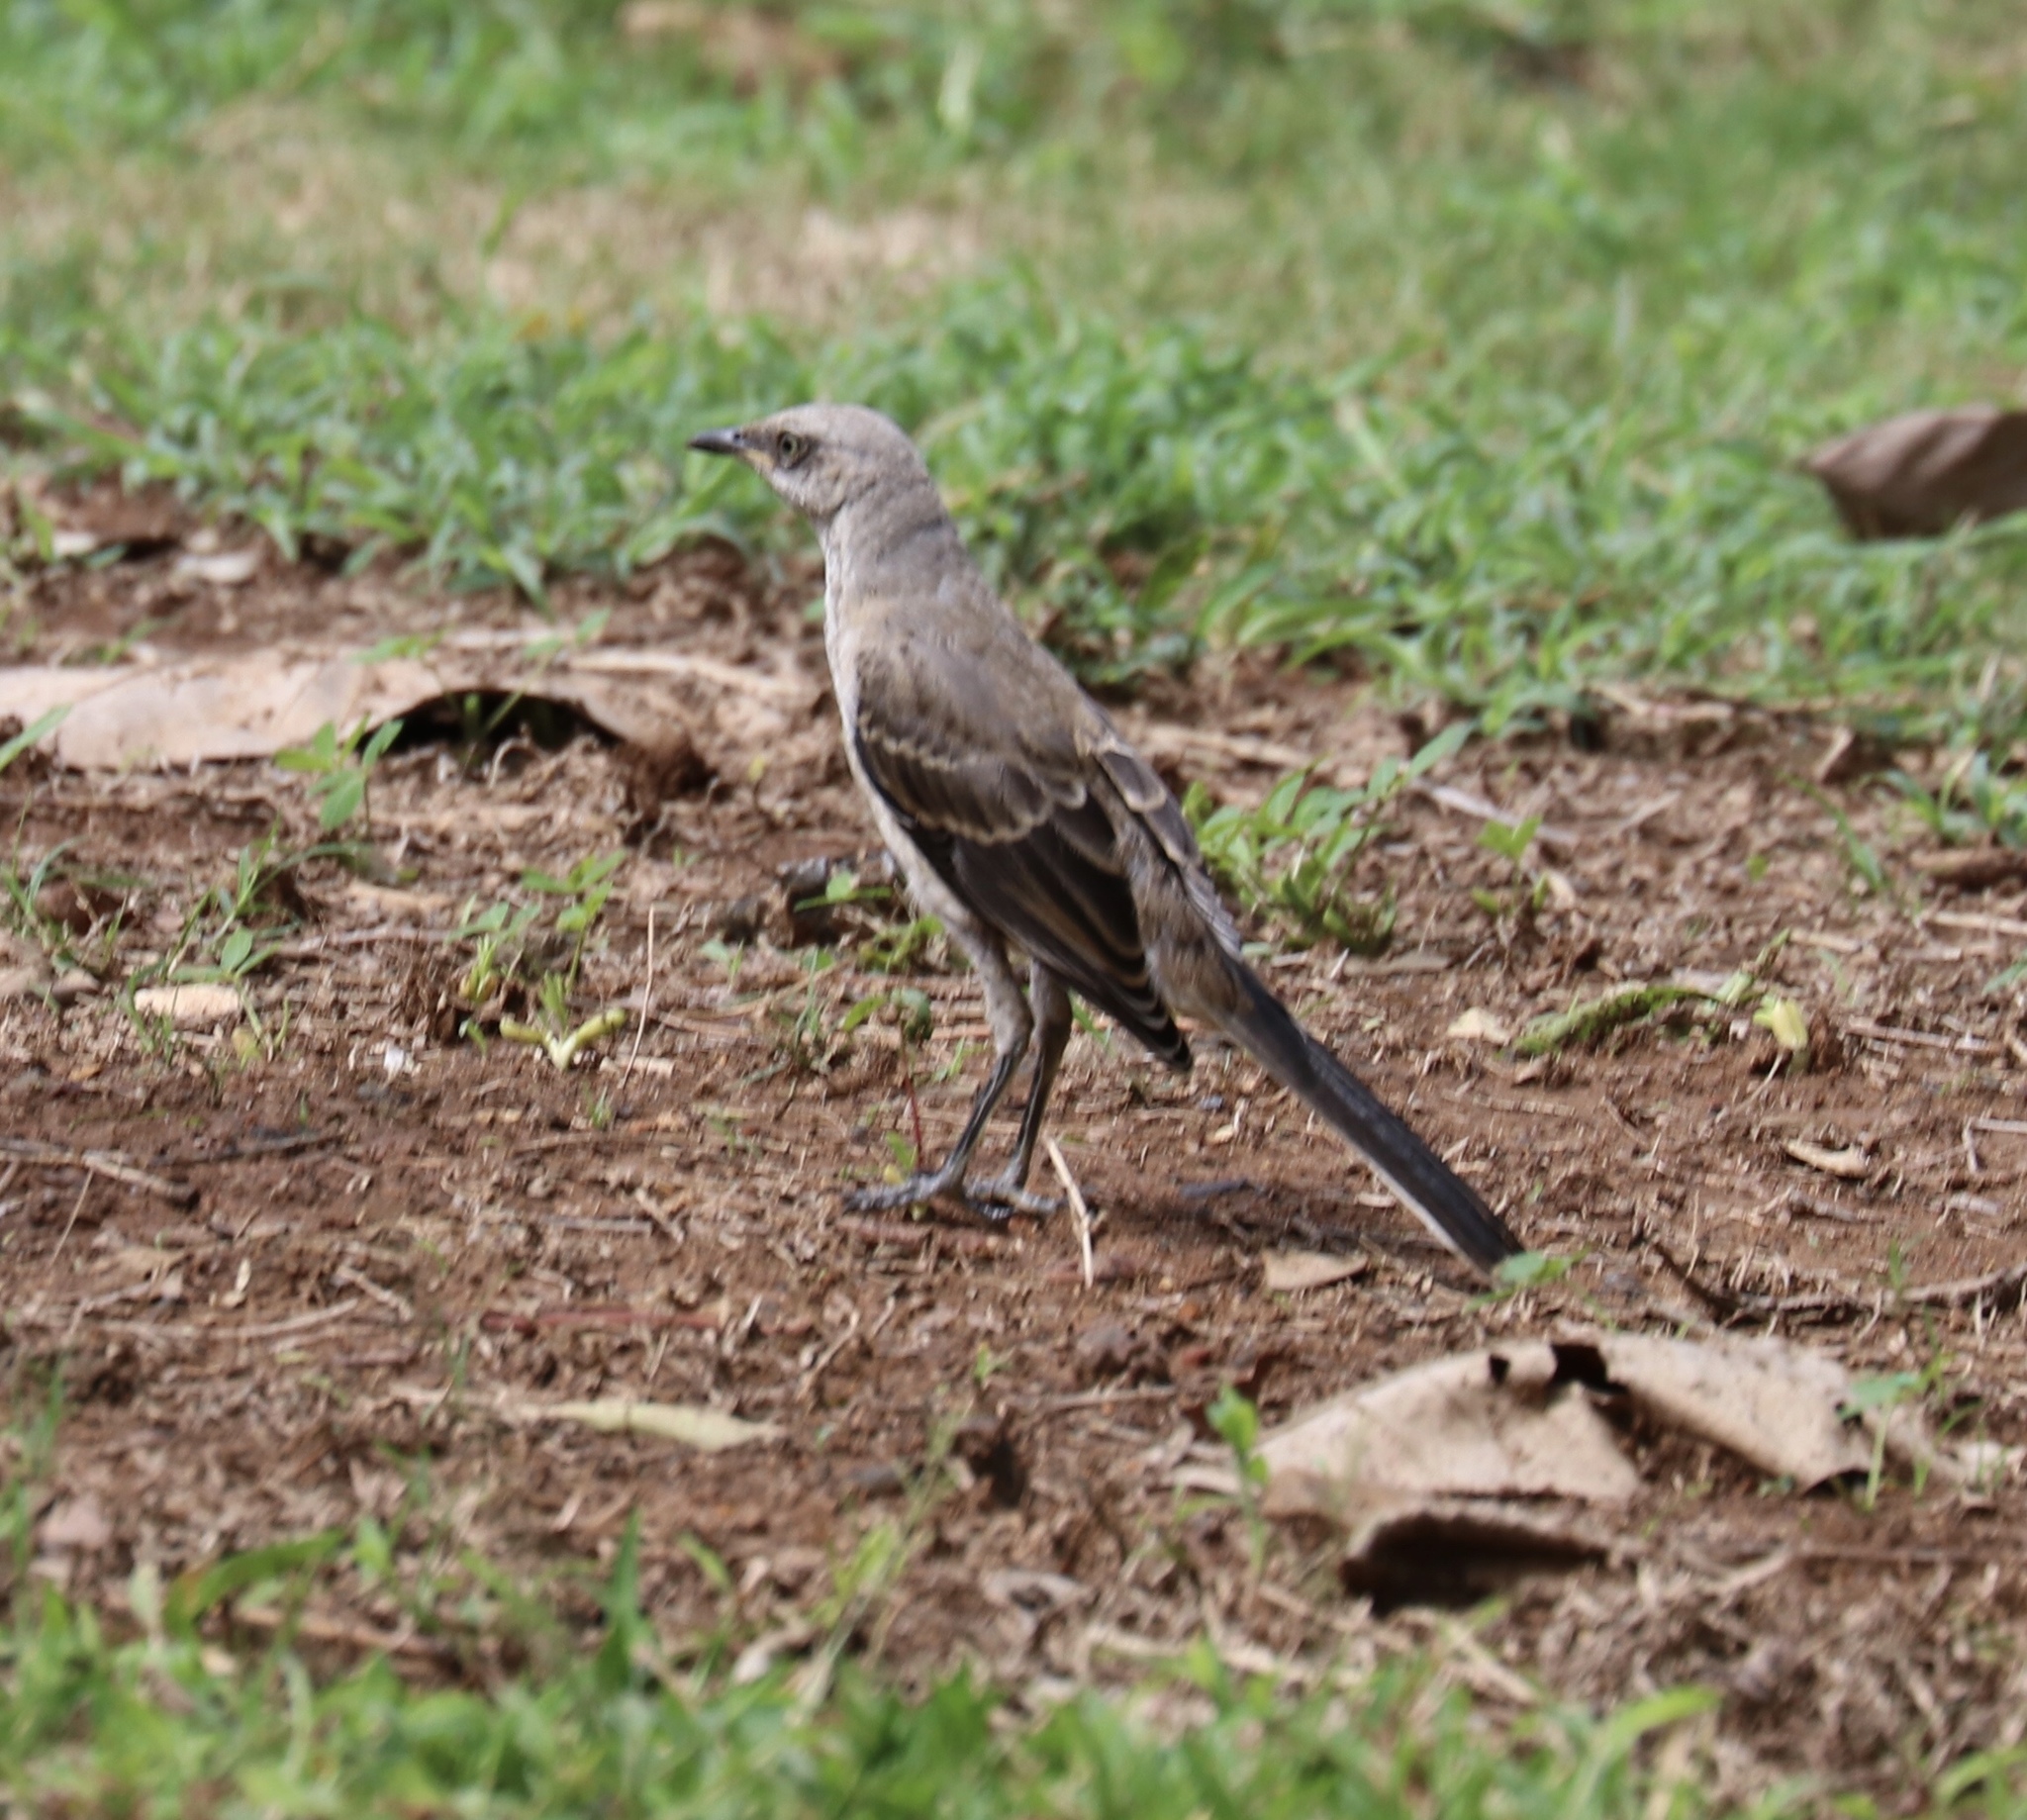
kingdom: Animalia
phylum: Chordata
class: Aves
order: Passeriformes
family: Mimidae
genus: Mimus
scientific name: Mimus gilvus
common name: Tropical mockingbird
